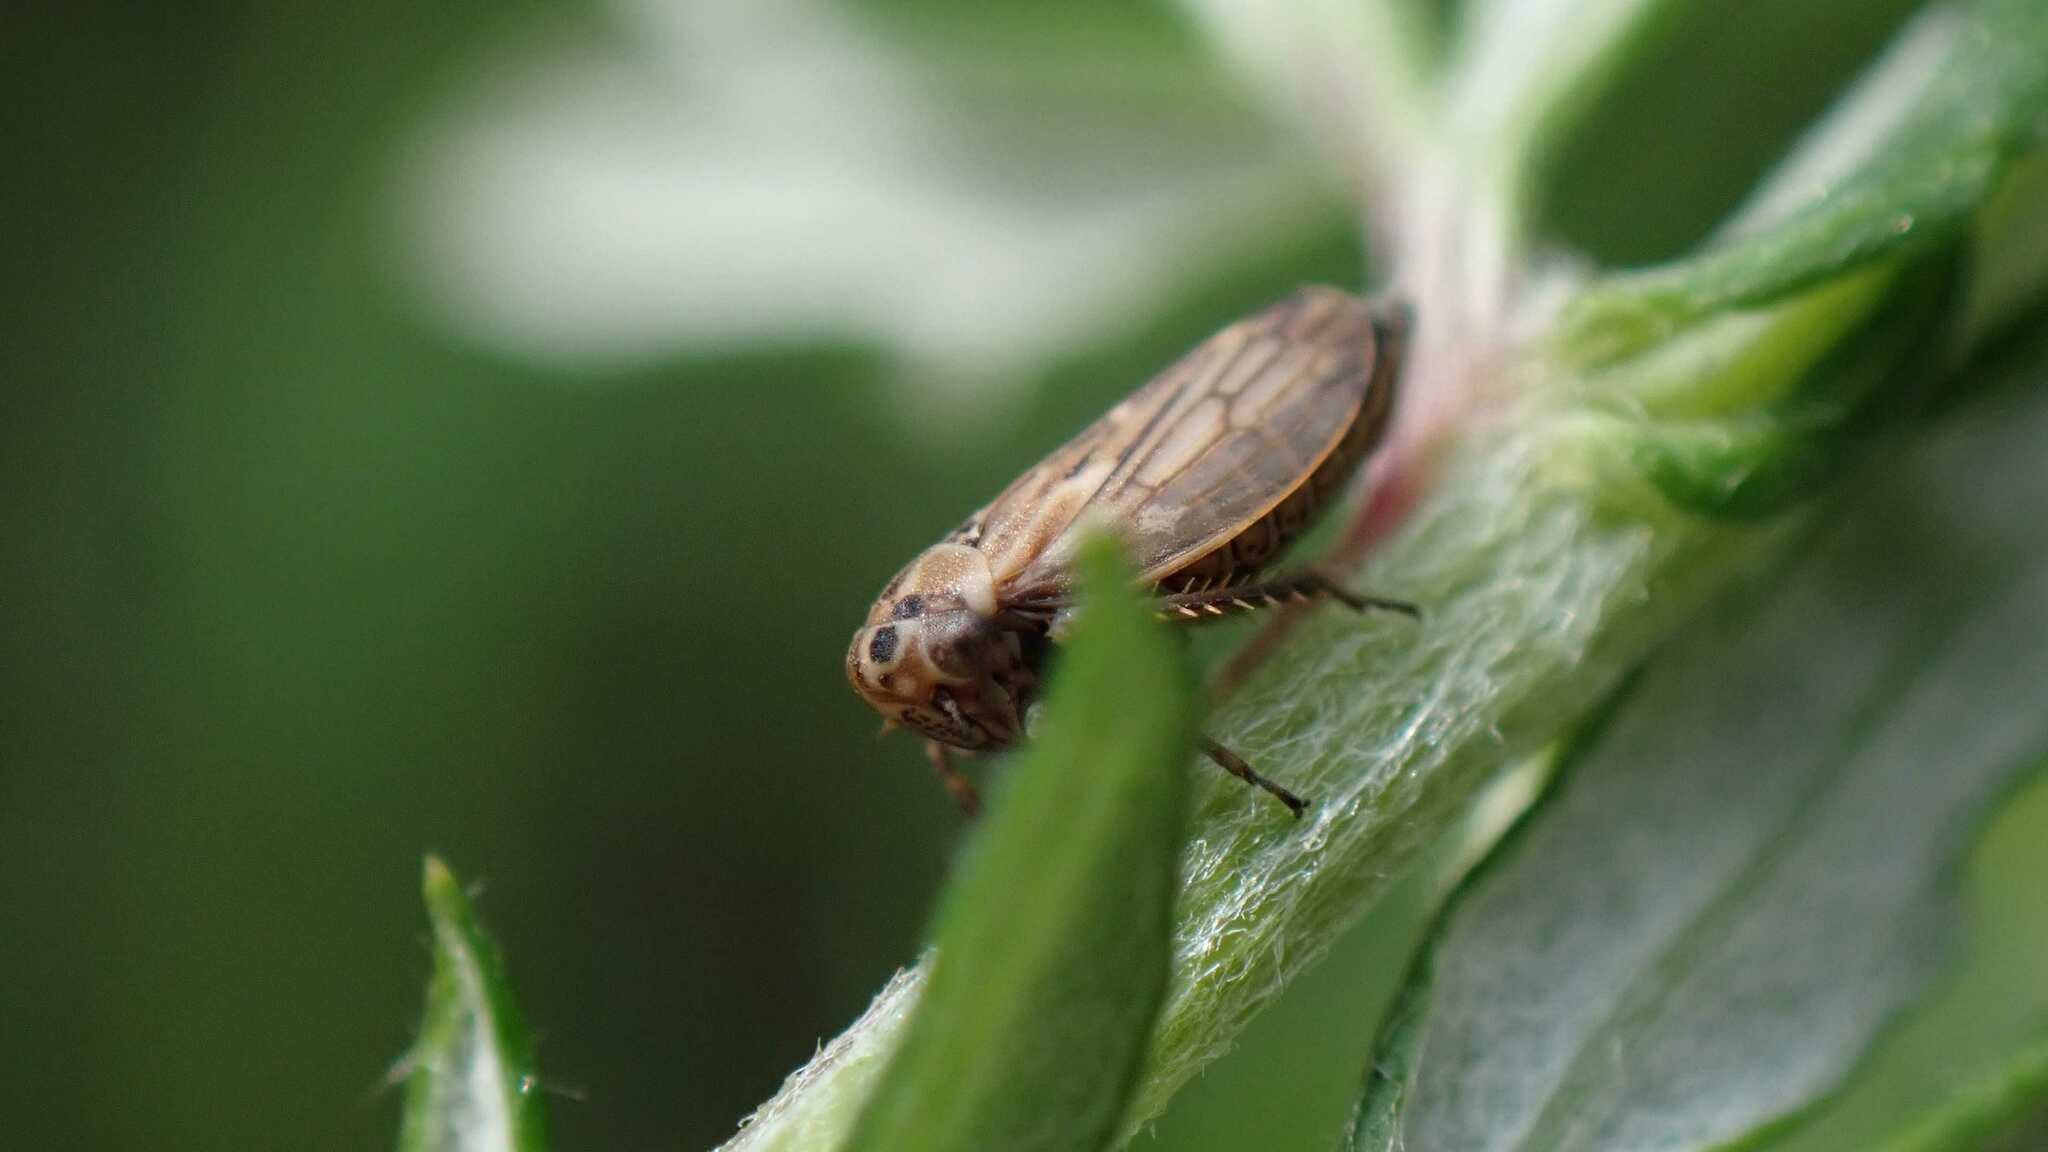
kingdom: Animalia
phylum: Arthropoda
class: Insecta
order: Hemiptera
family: Cicadellidae
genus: Anaceratagallia
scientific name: Anaceratagallia
